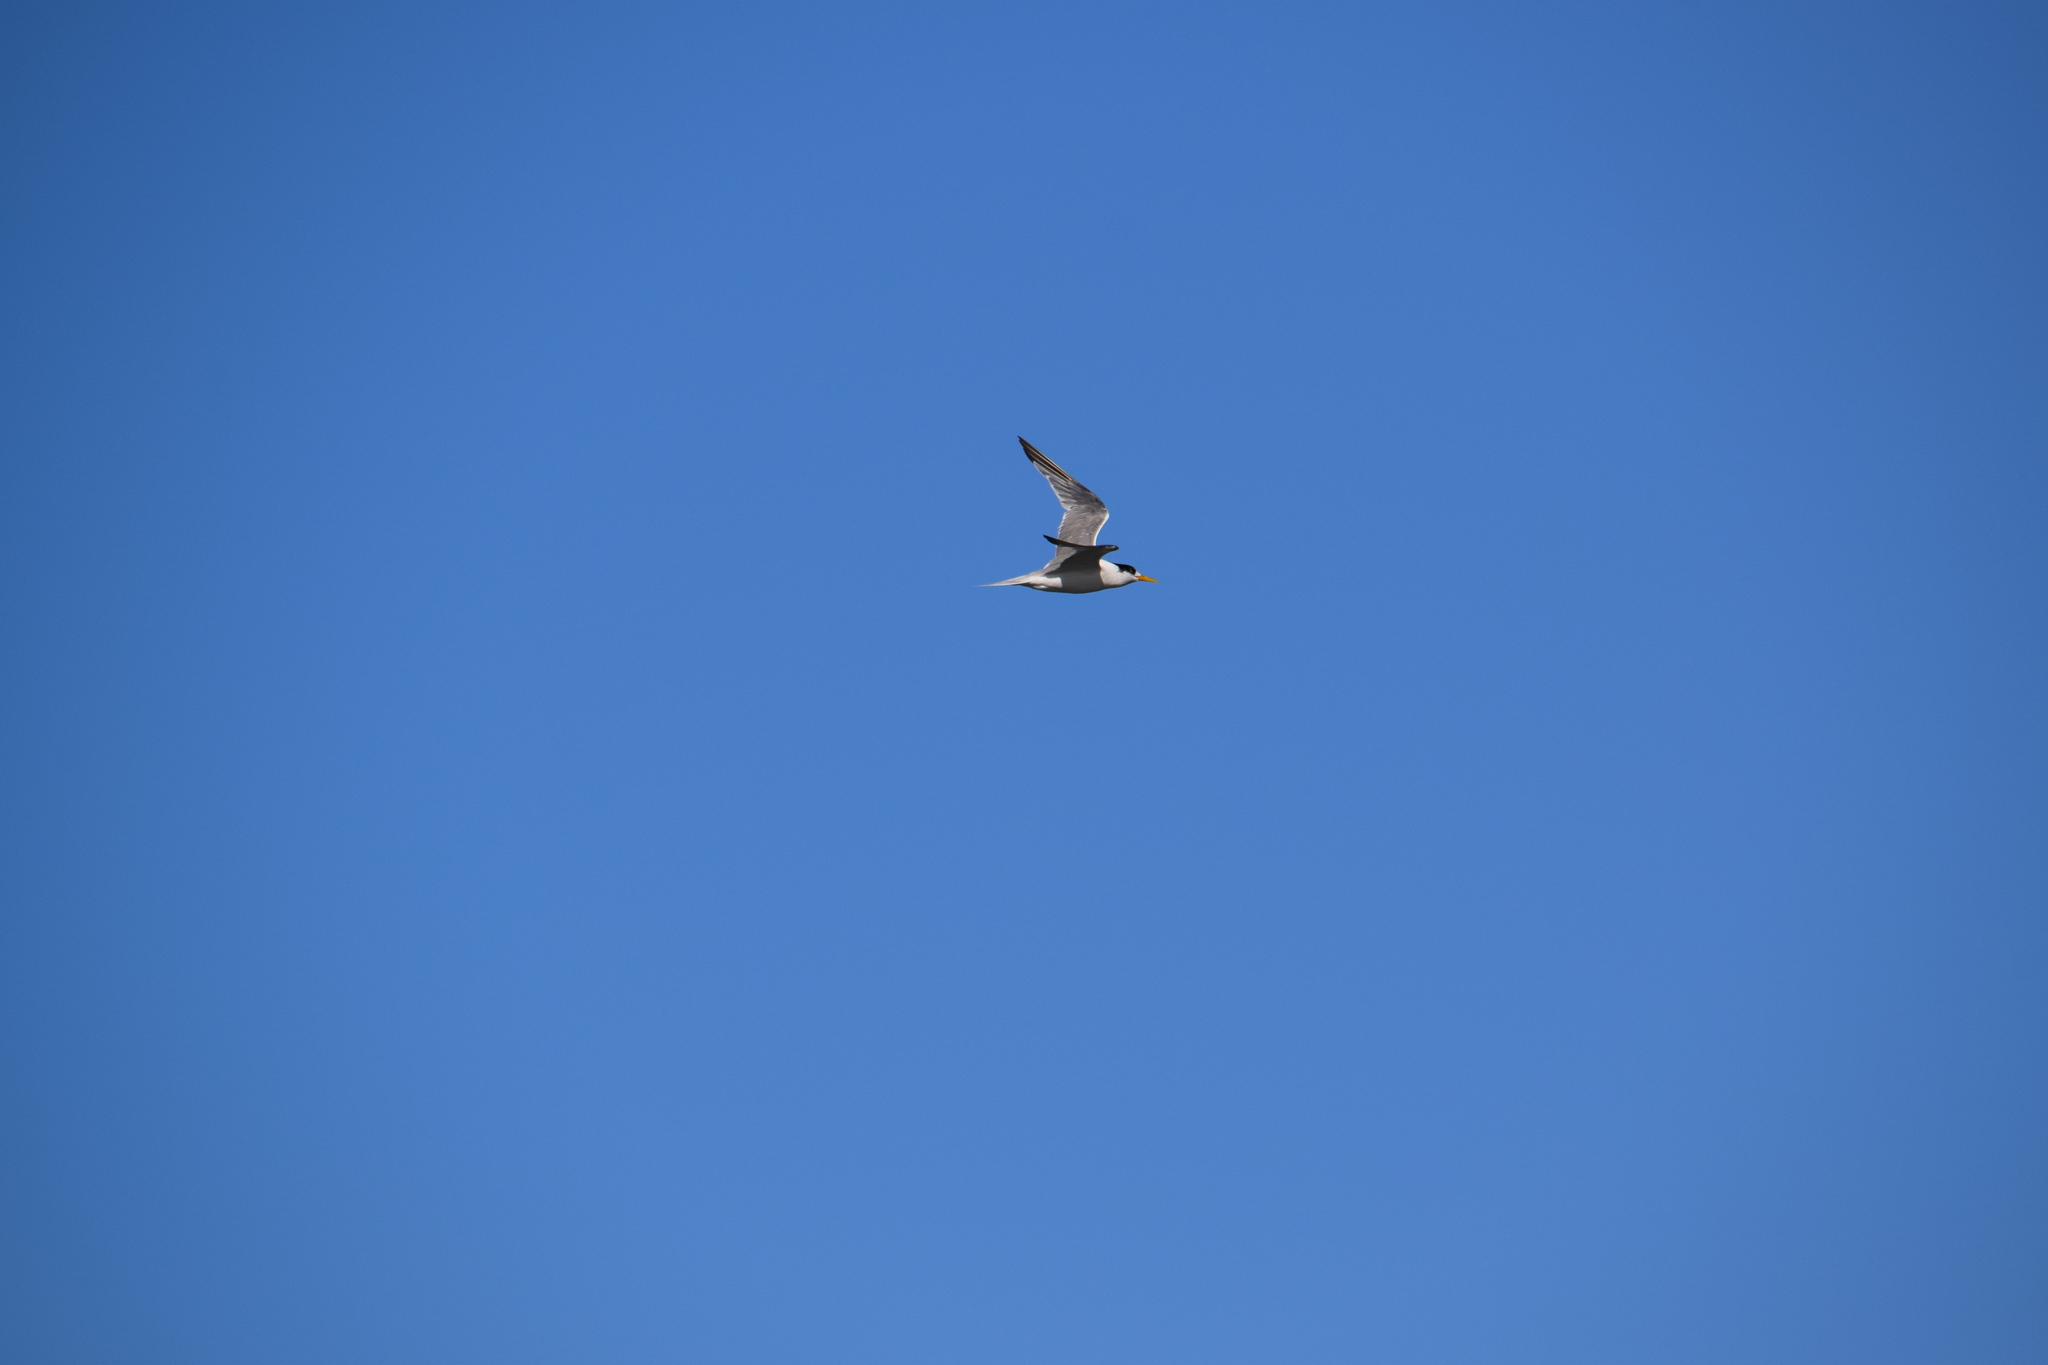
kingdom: Animalia
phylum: Chordata
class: Aves
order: Charadriiformes
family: Laridae
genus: Thalasseus
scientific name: Thalasseus bergii
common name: Greater crested tern
